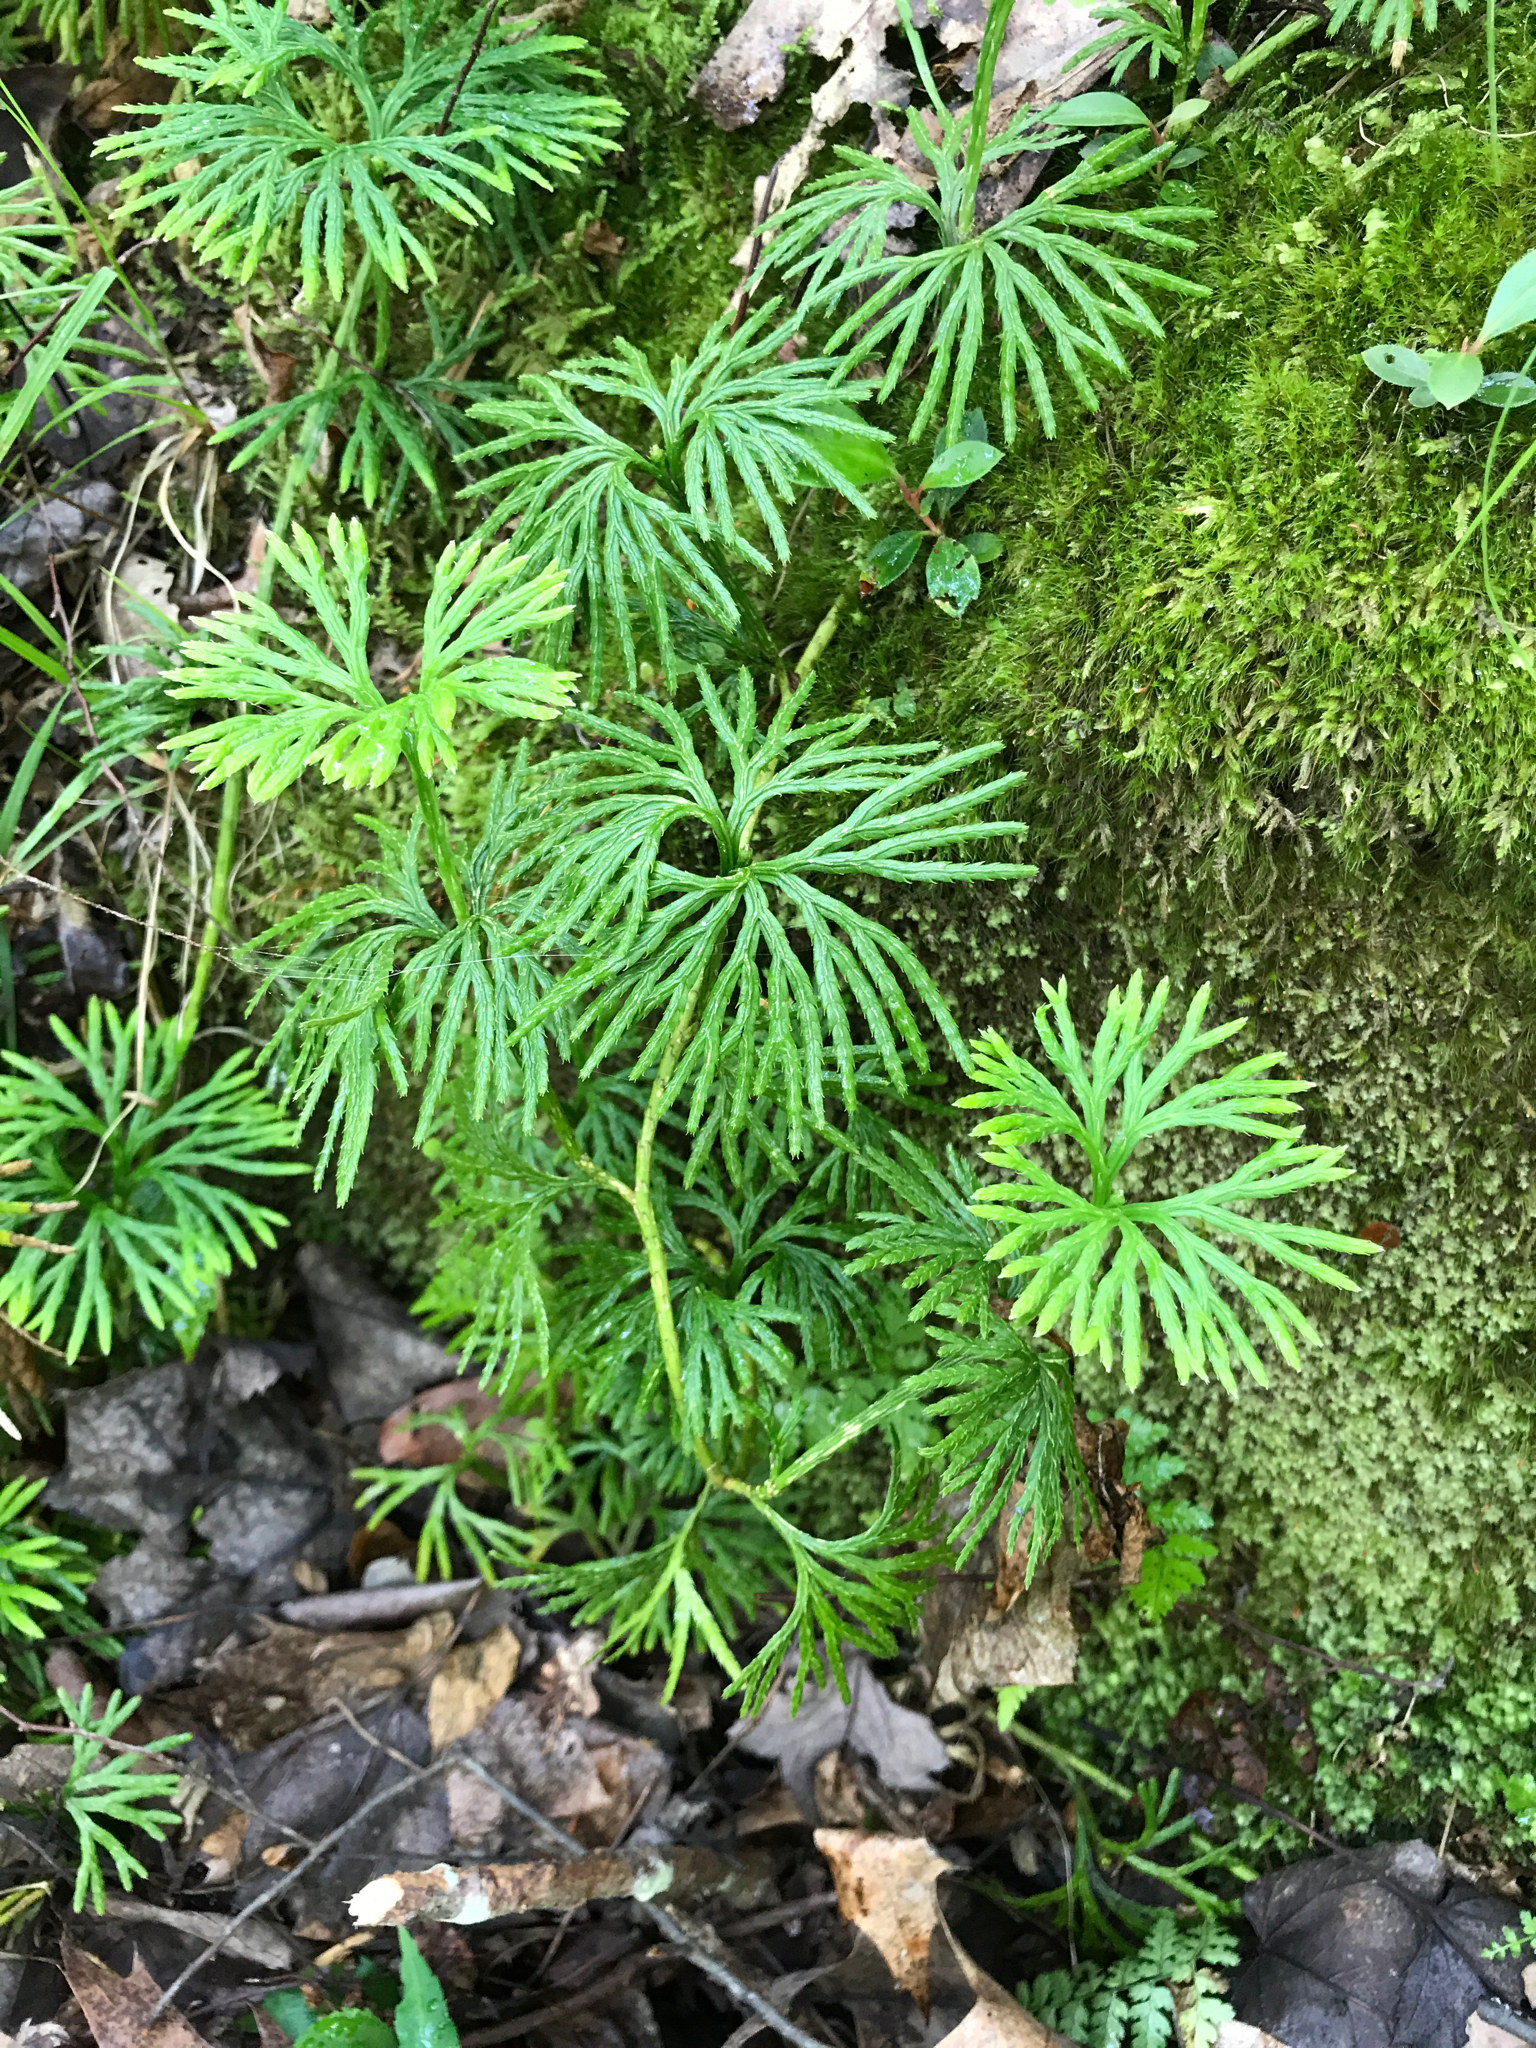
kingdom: Plantae
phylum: Tracheophyta
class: Lycopodiopsida
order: Lycopodiales
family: Lycopodiaceae
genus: Diphasiastrum
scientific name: Diphasiastrum digitatum
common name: Southern running-pine
